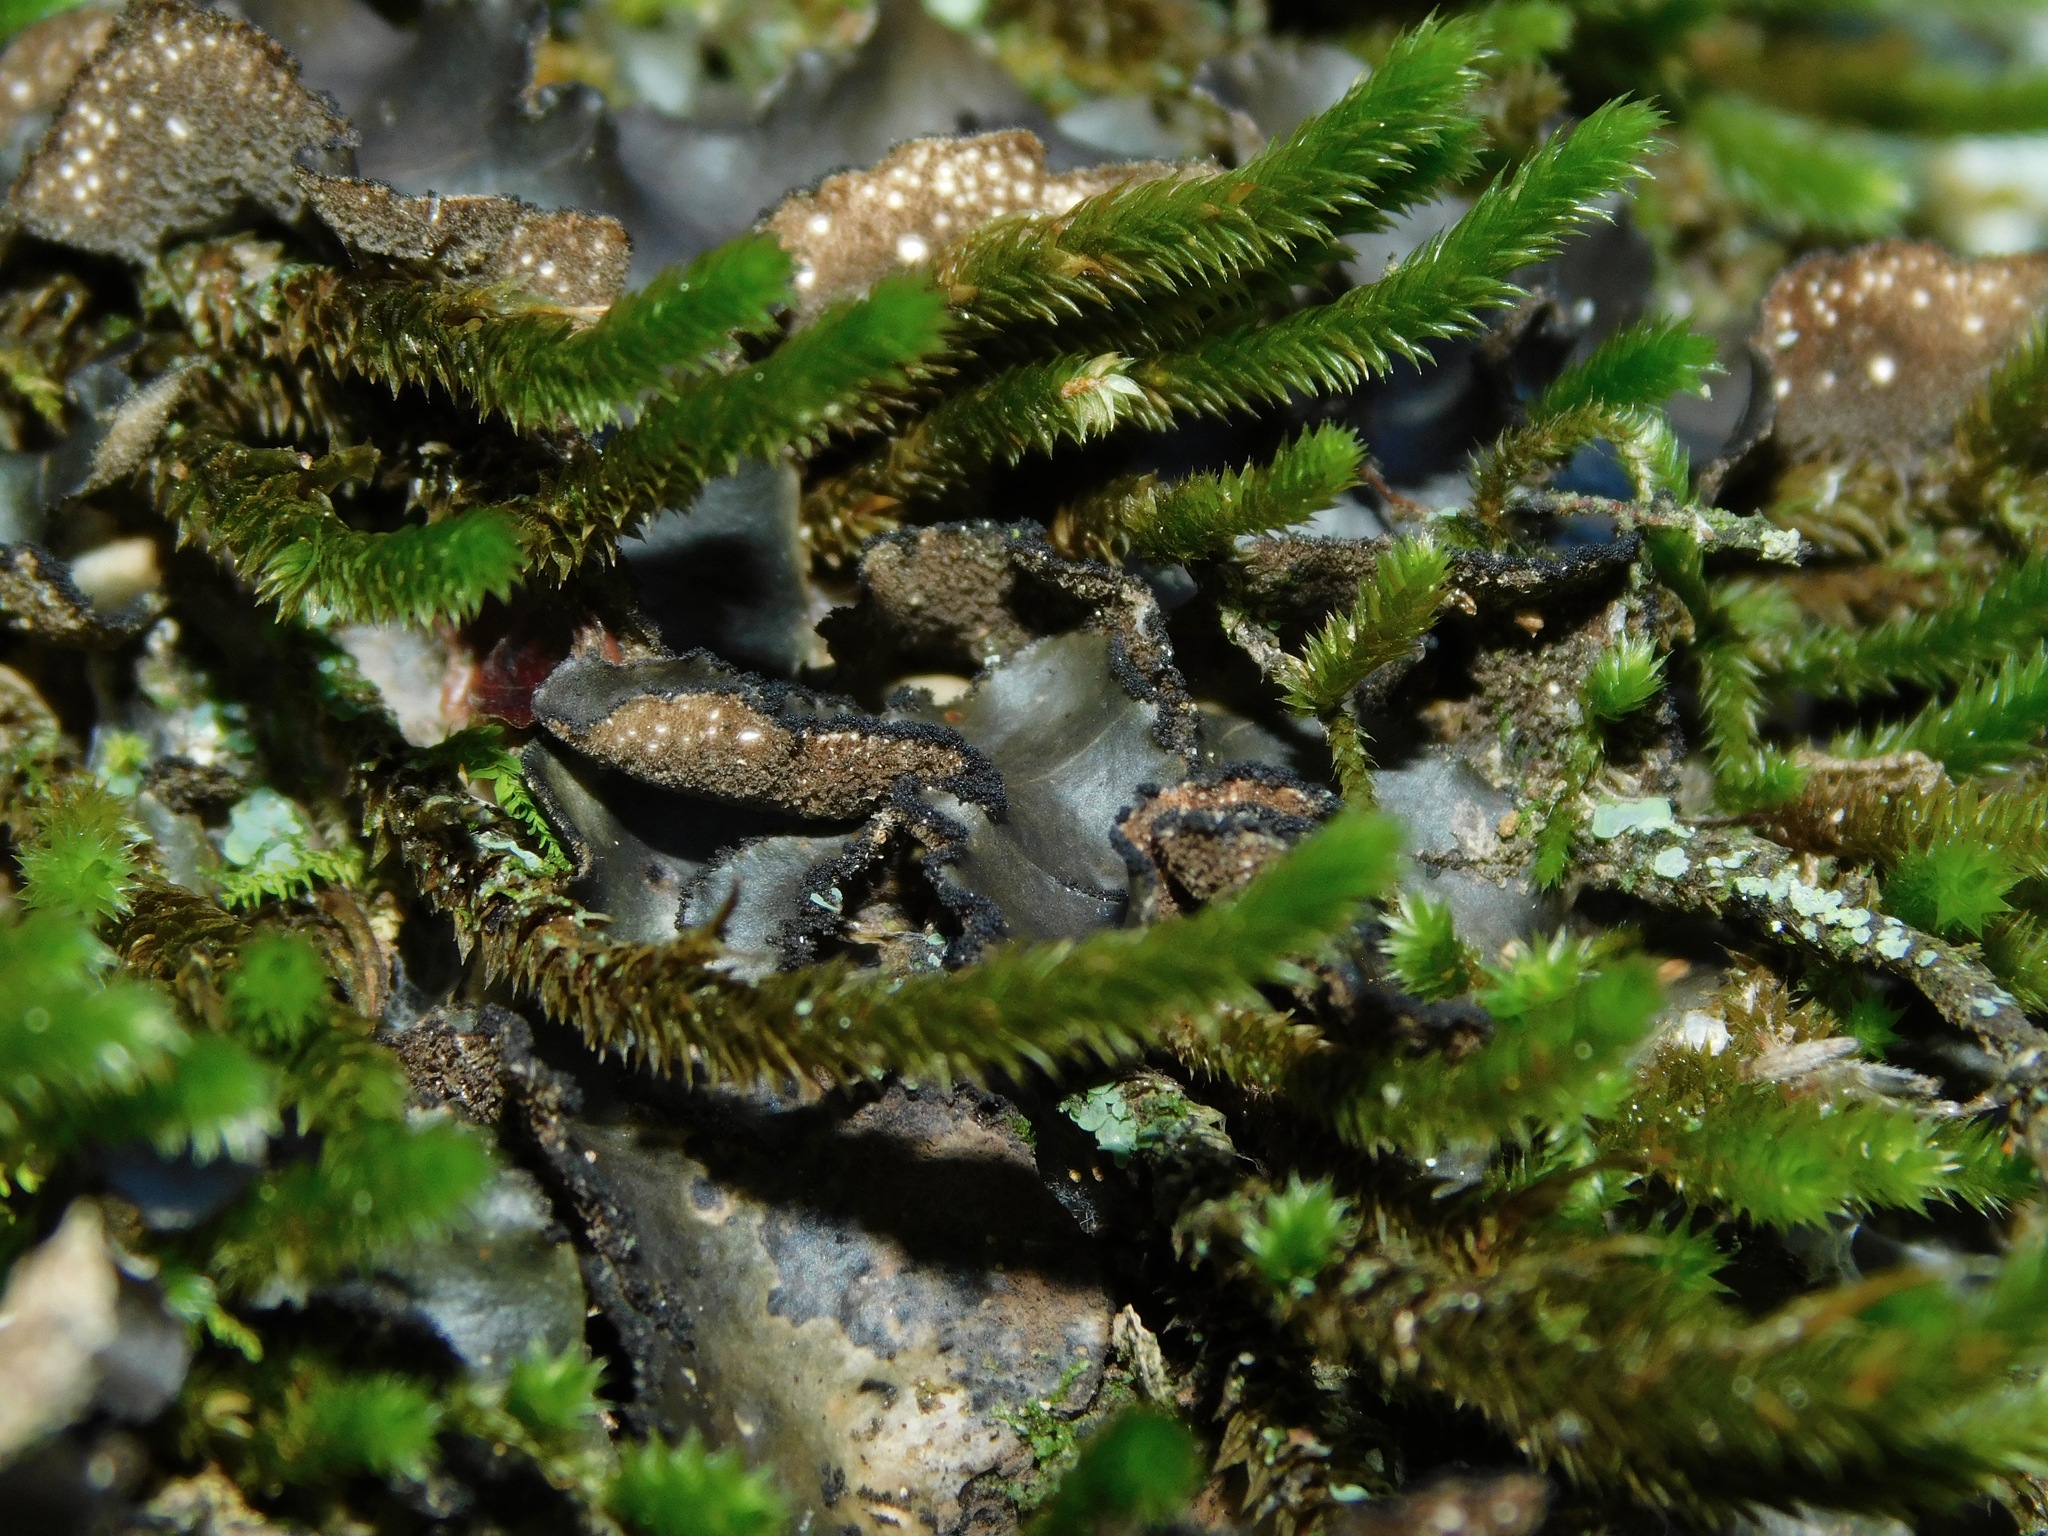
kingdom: Fungi
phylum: Ascomycota
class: Lecanoromycetes
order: Peltigerales
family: Lobariaceae
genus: Sticta
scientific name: Sticta beauvoisii
